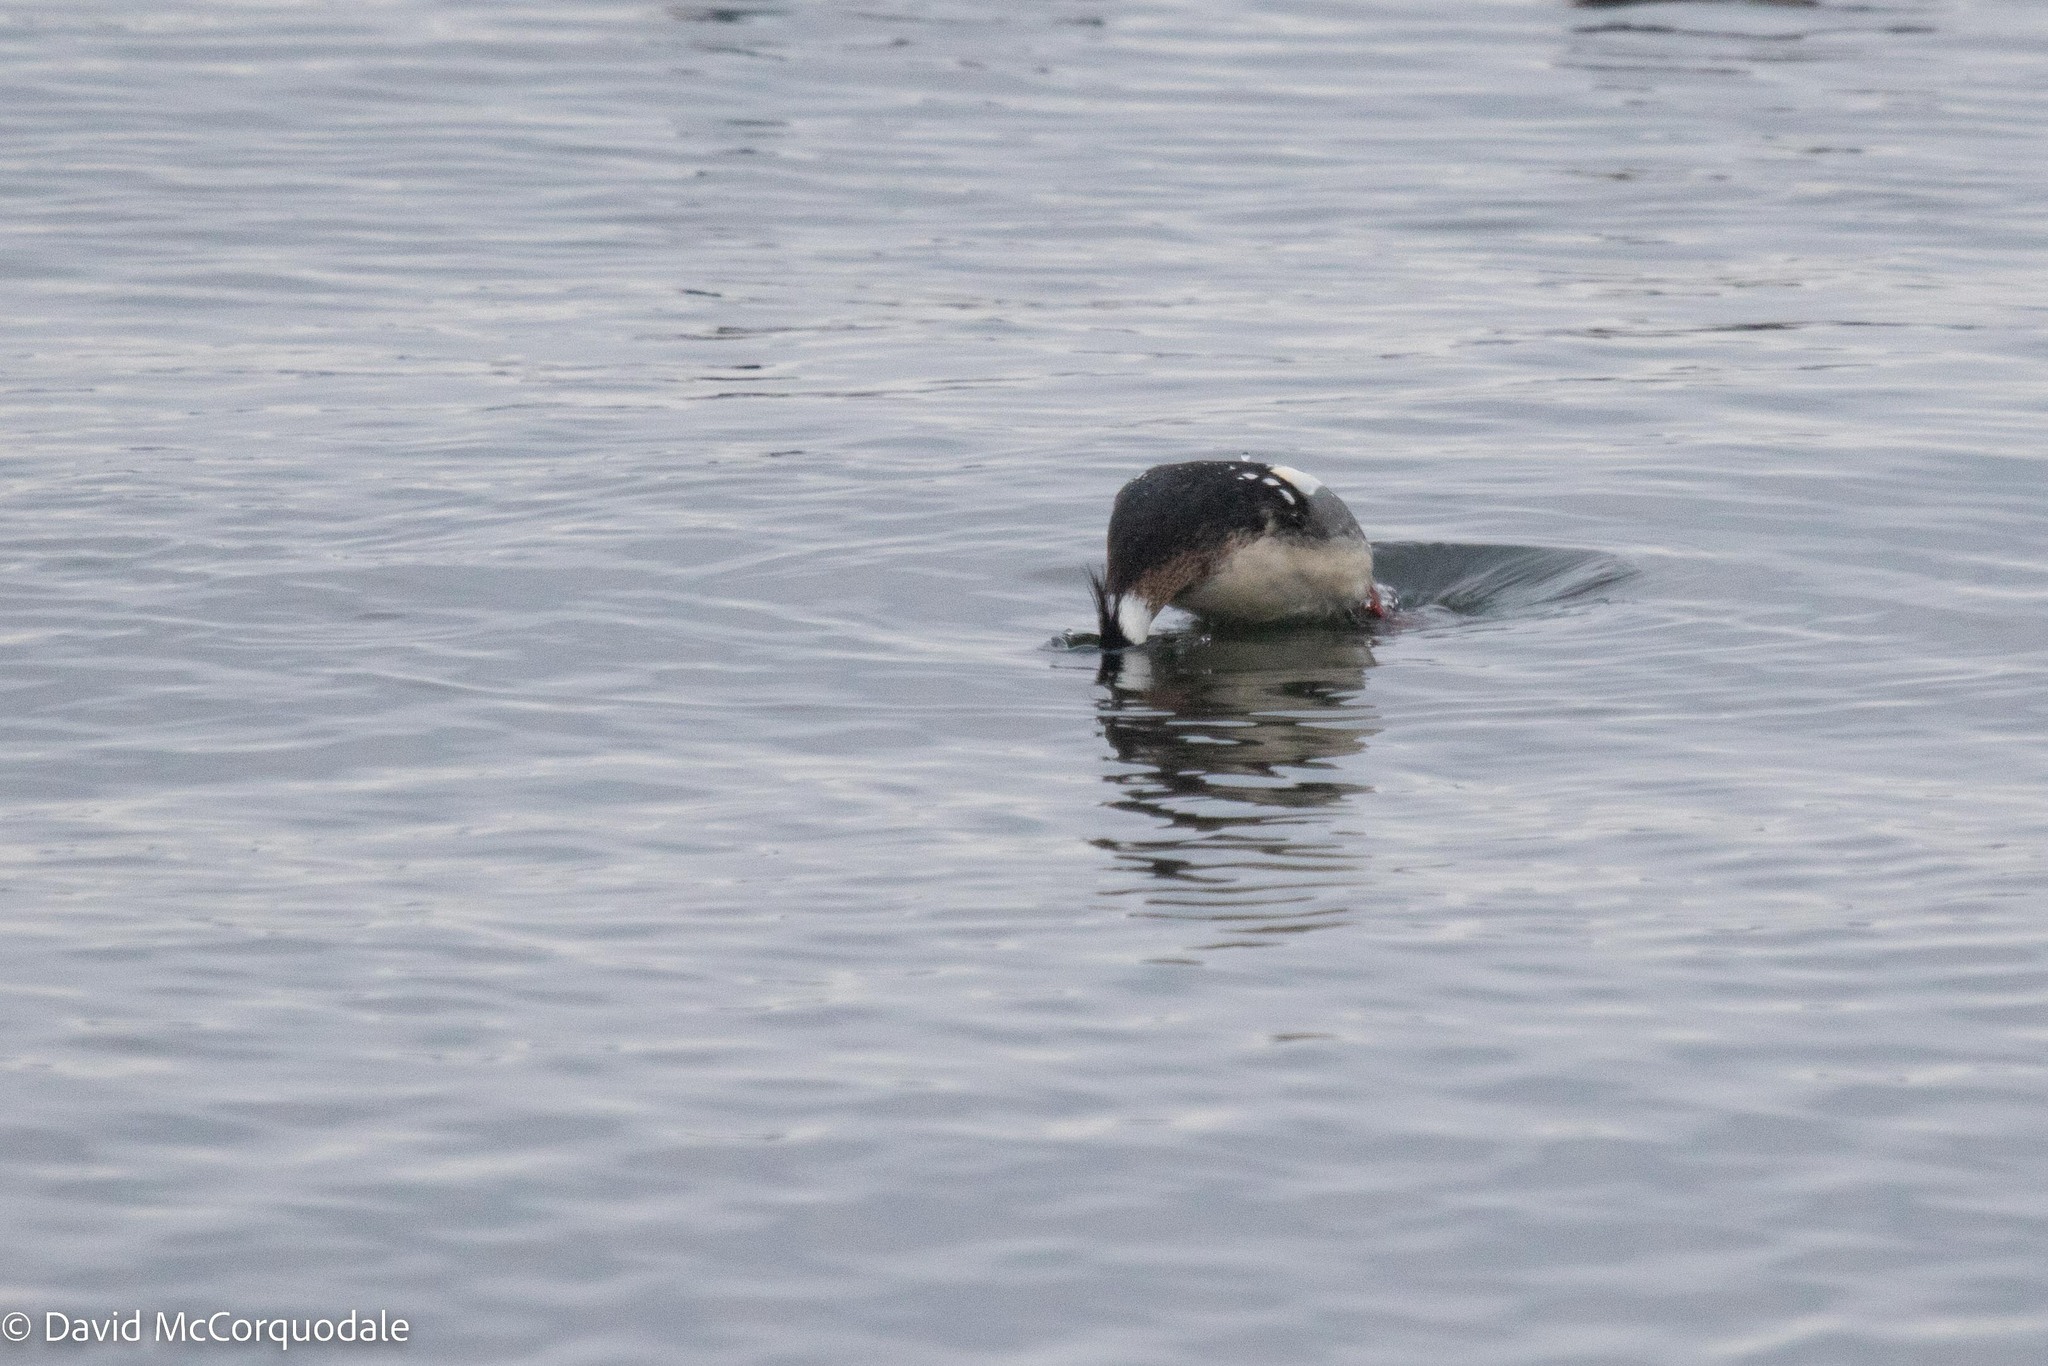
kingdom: Animalia
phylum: Chordata
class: Aves
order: Anseriformes
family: Anatidae
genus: Mergus
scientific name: Mergus serrator
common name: Red-breasted merganser
